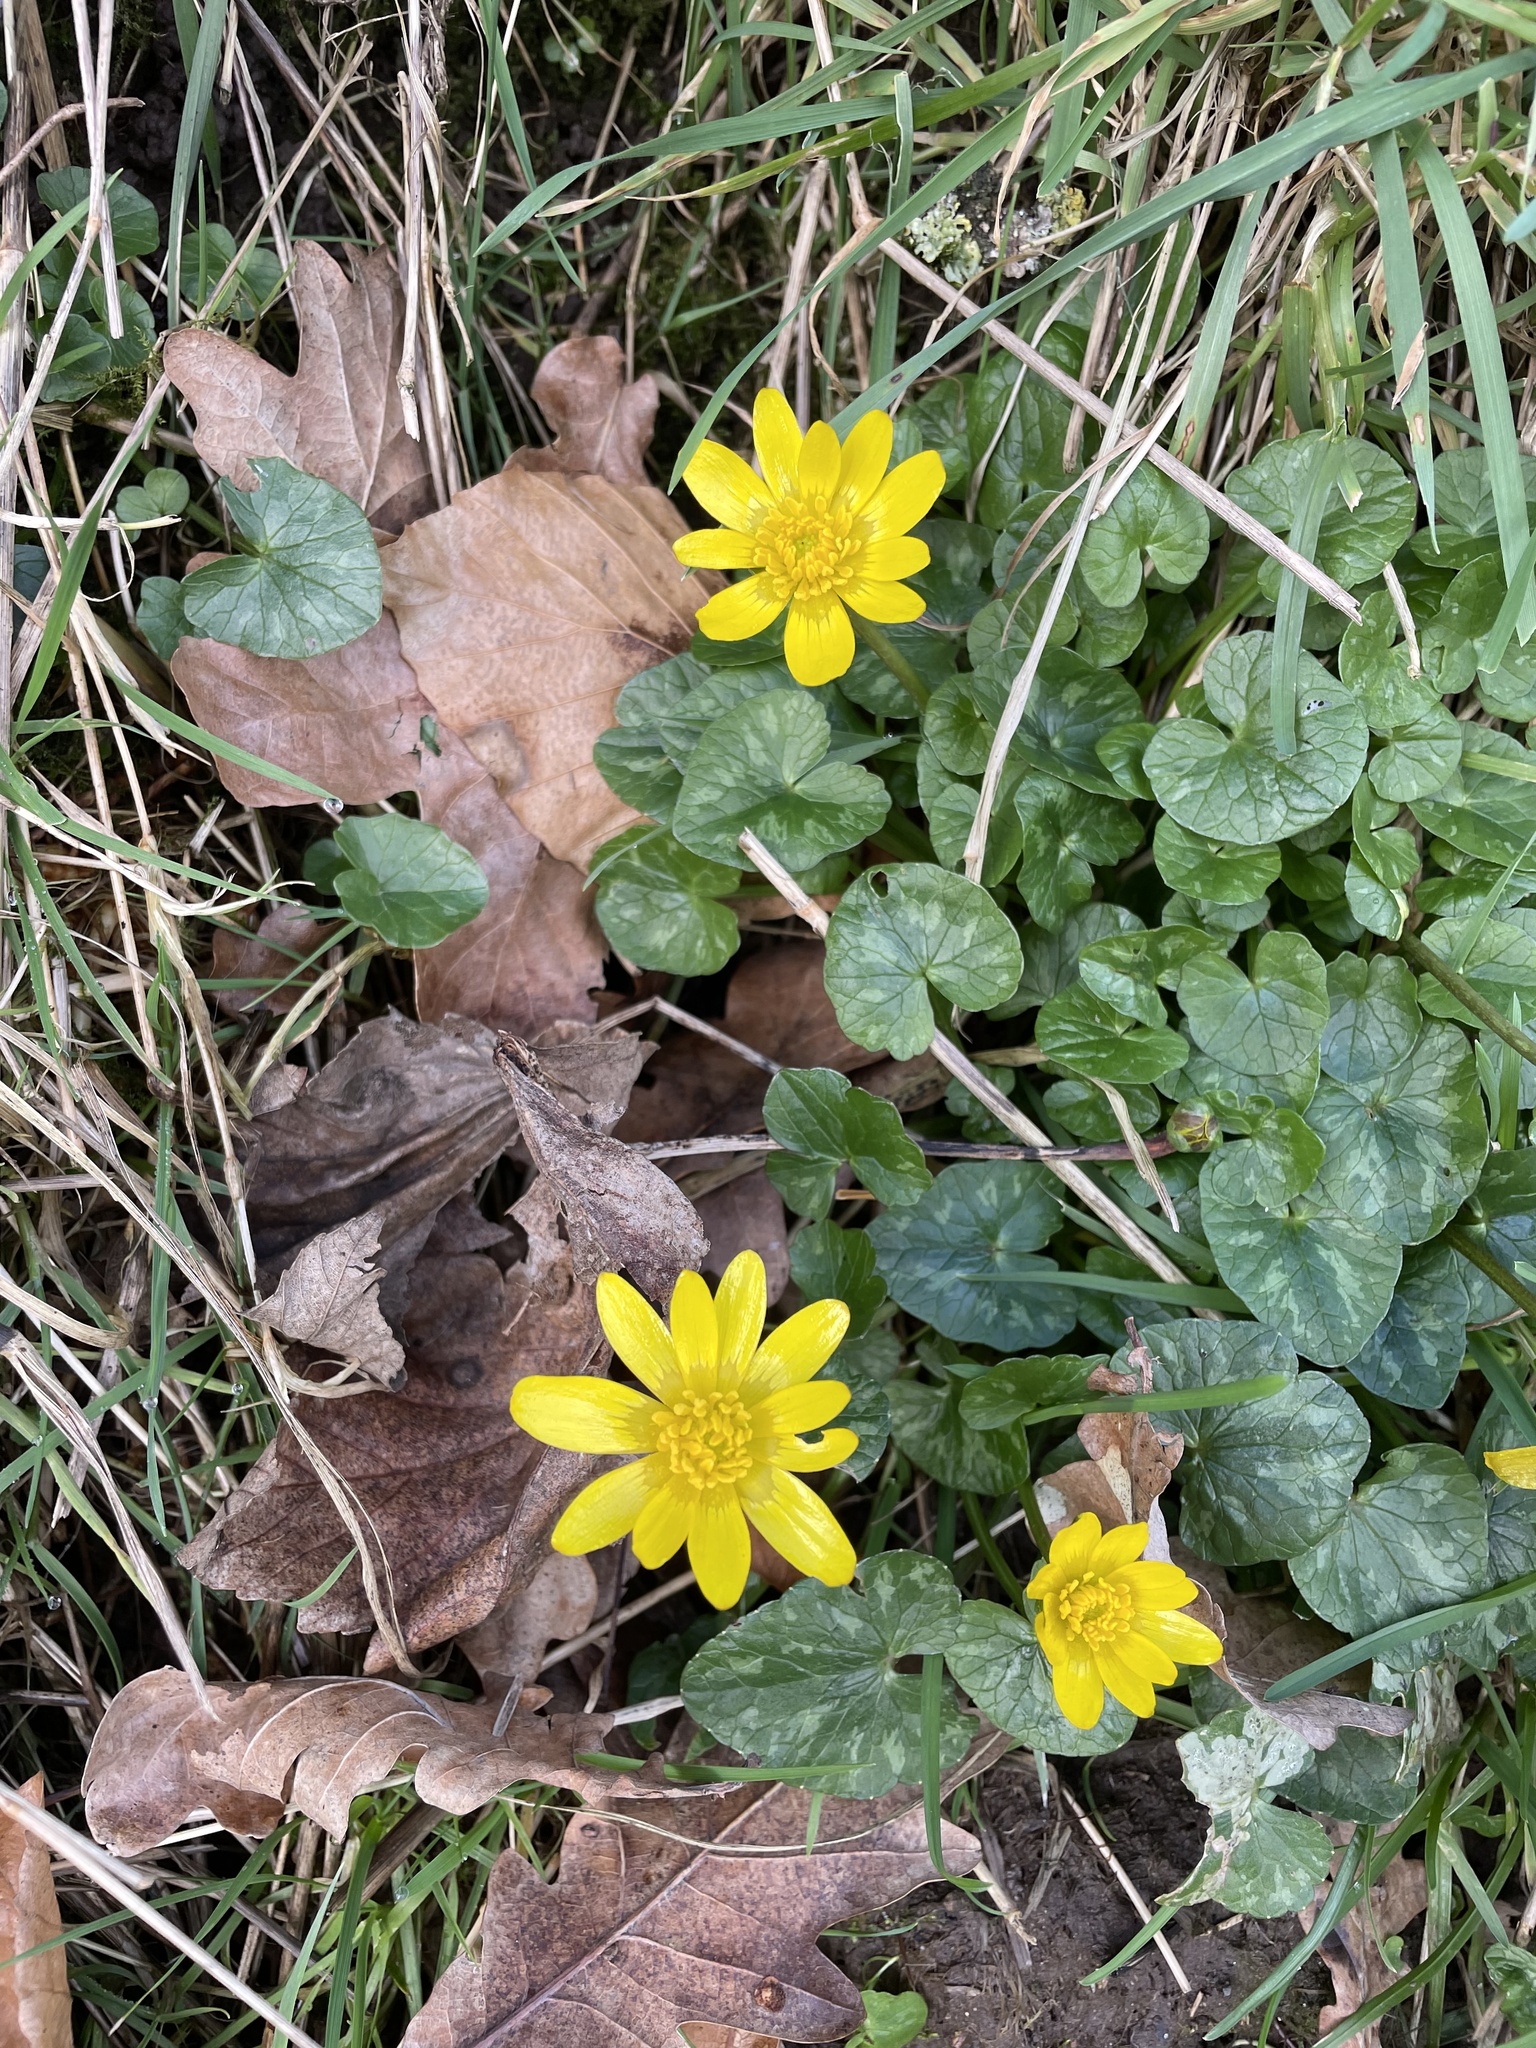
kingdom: Plantae
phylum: Tracheophyta
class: Magnoliopsida
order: Ranunculales
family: Ranunculaceae
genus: Ficaria
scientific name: Ficaria verna
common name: Lesser celandine
